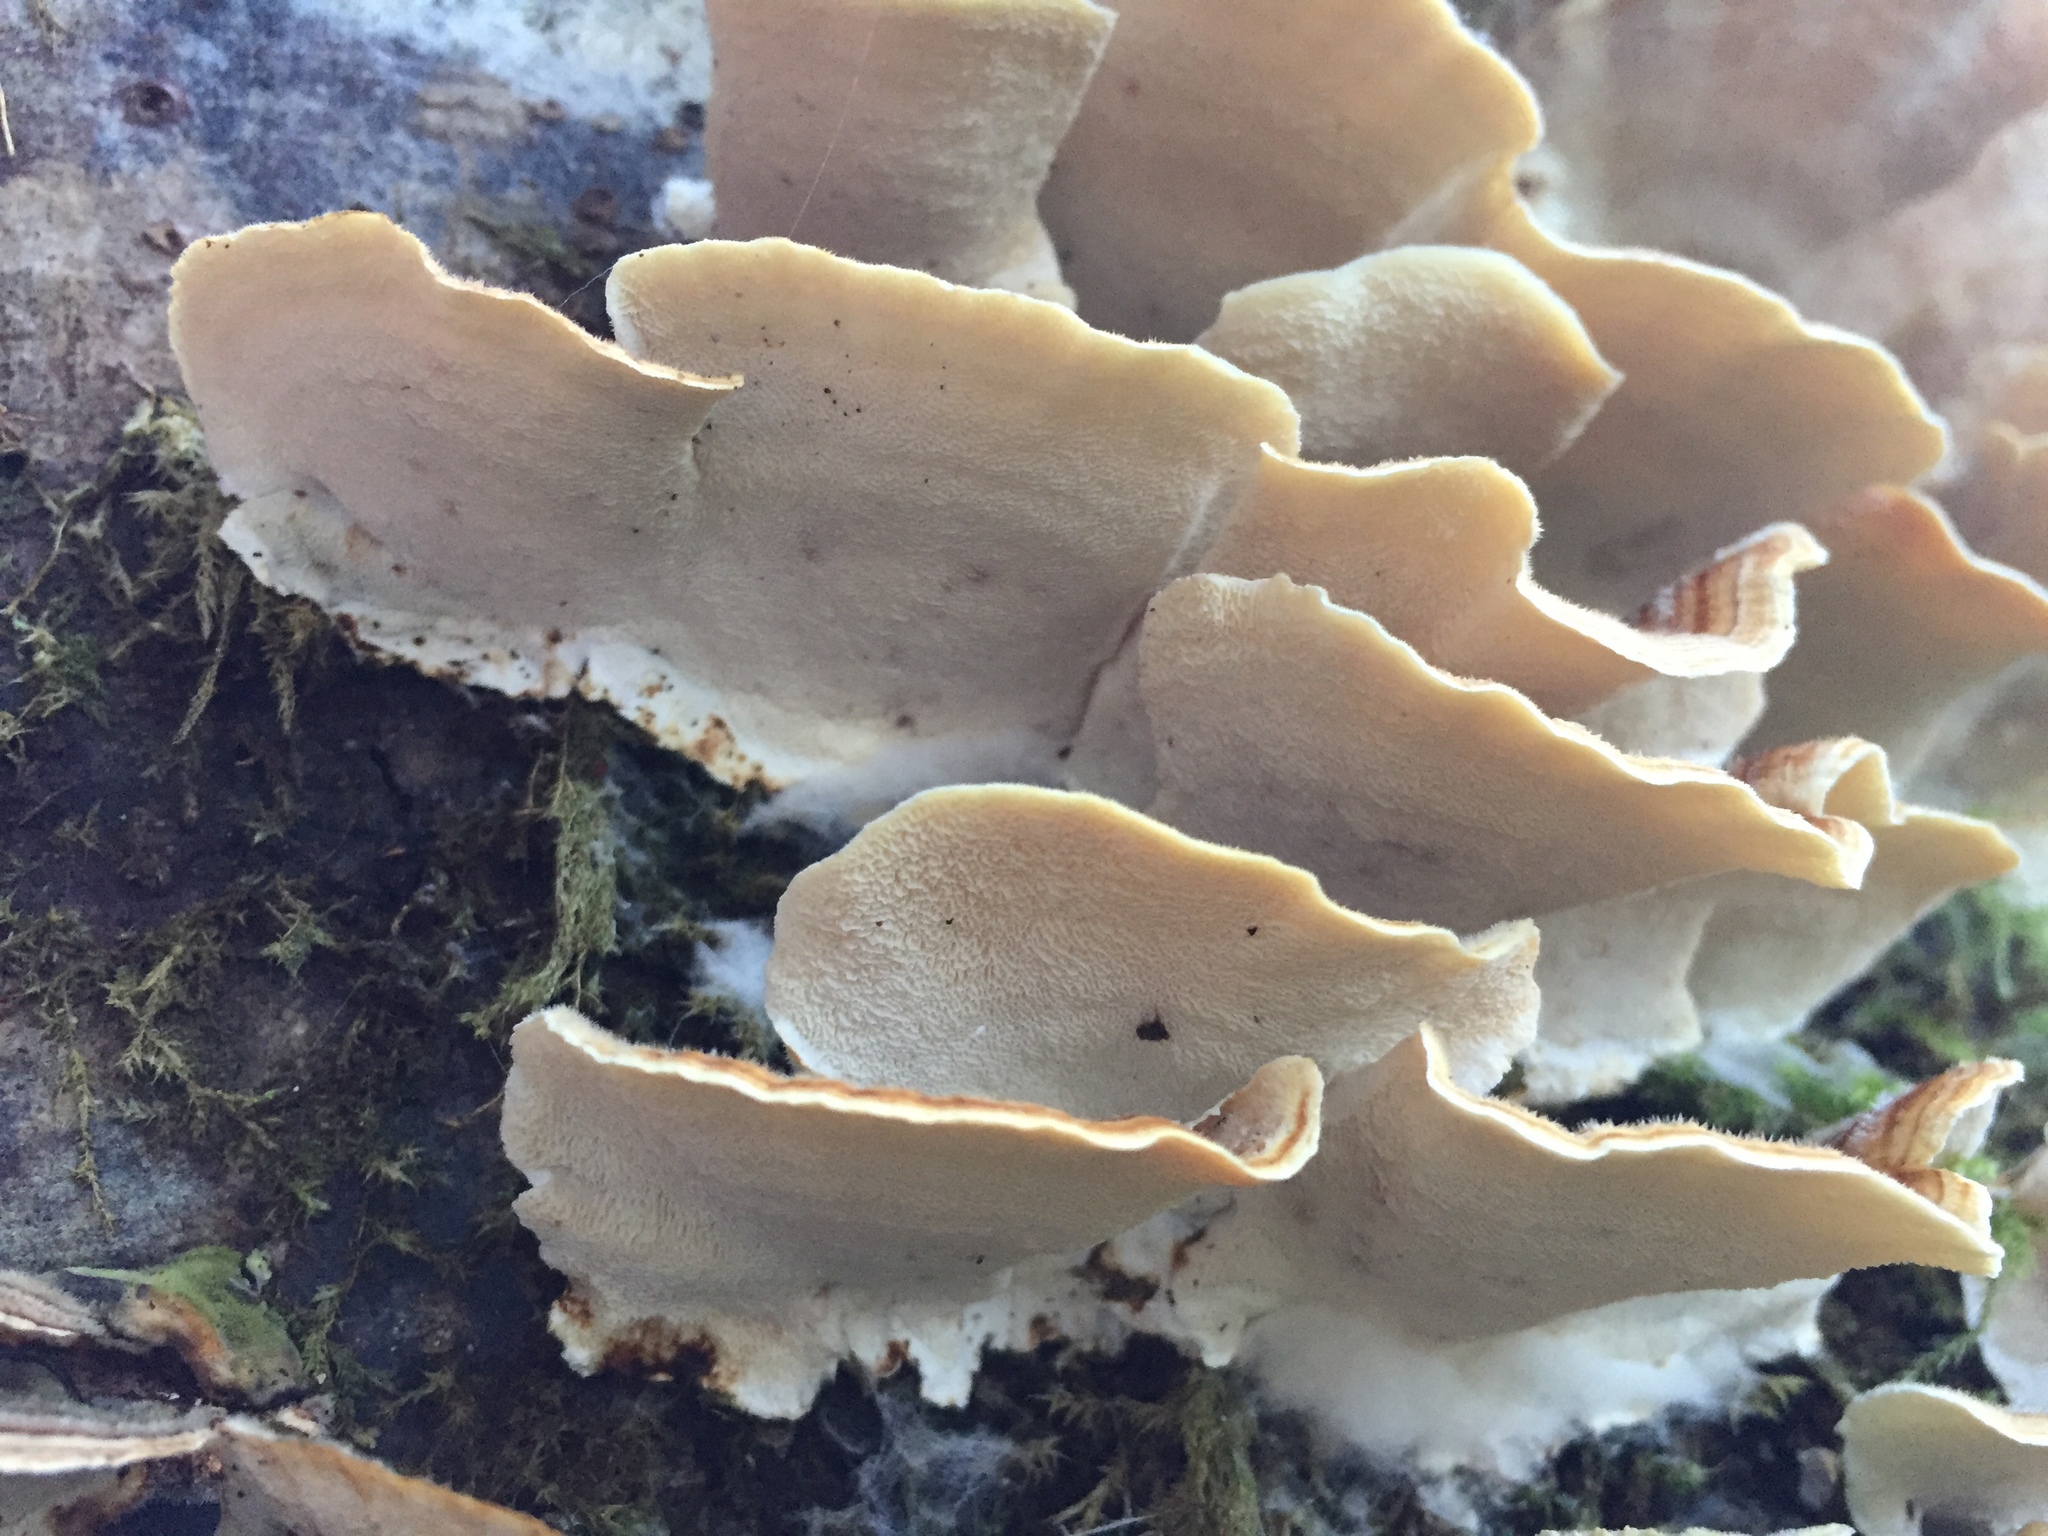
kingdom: Fungi
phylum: Basidiomycota
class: Agaricomycetes
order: Polyporales
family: Polyporaceae
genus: Trametes
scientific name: Trametes versicolor
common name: Turkeytail
